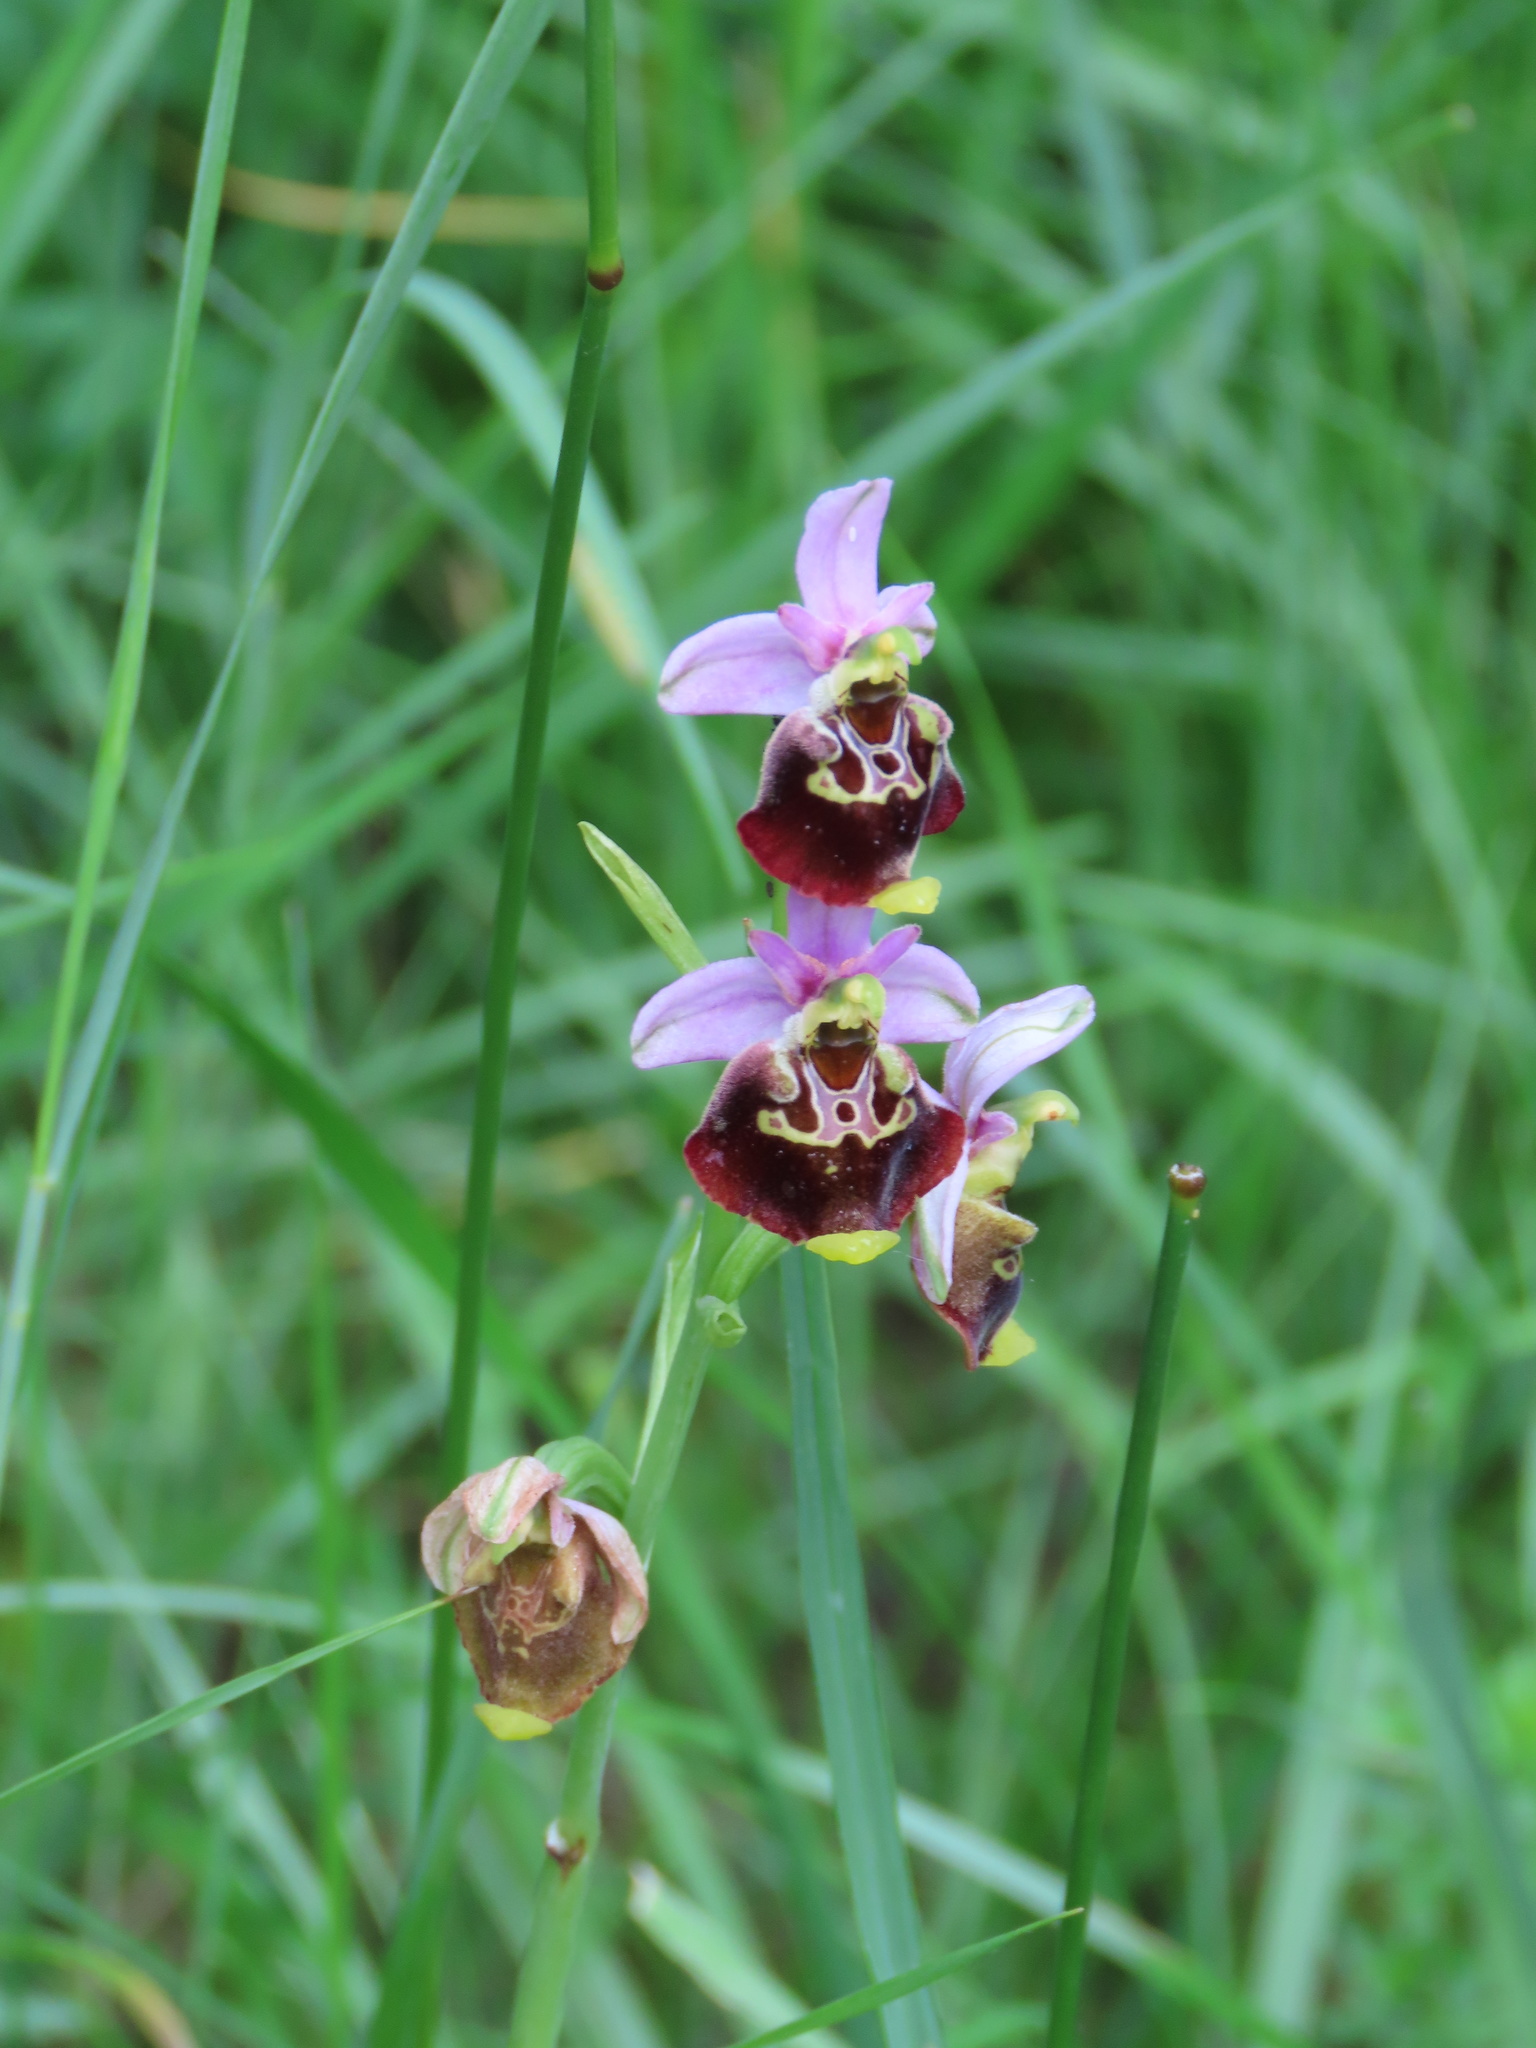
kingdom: Plantae
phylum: Tracheophyta
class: Liliopsida
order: Asparagales
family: Orchidaceae
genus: Ophrys
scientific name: Ophrys holosericea
